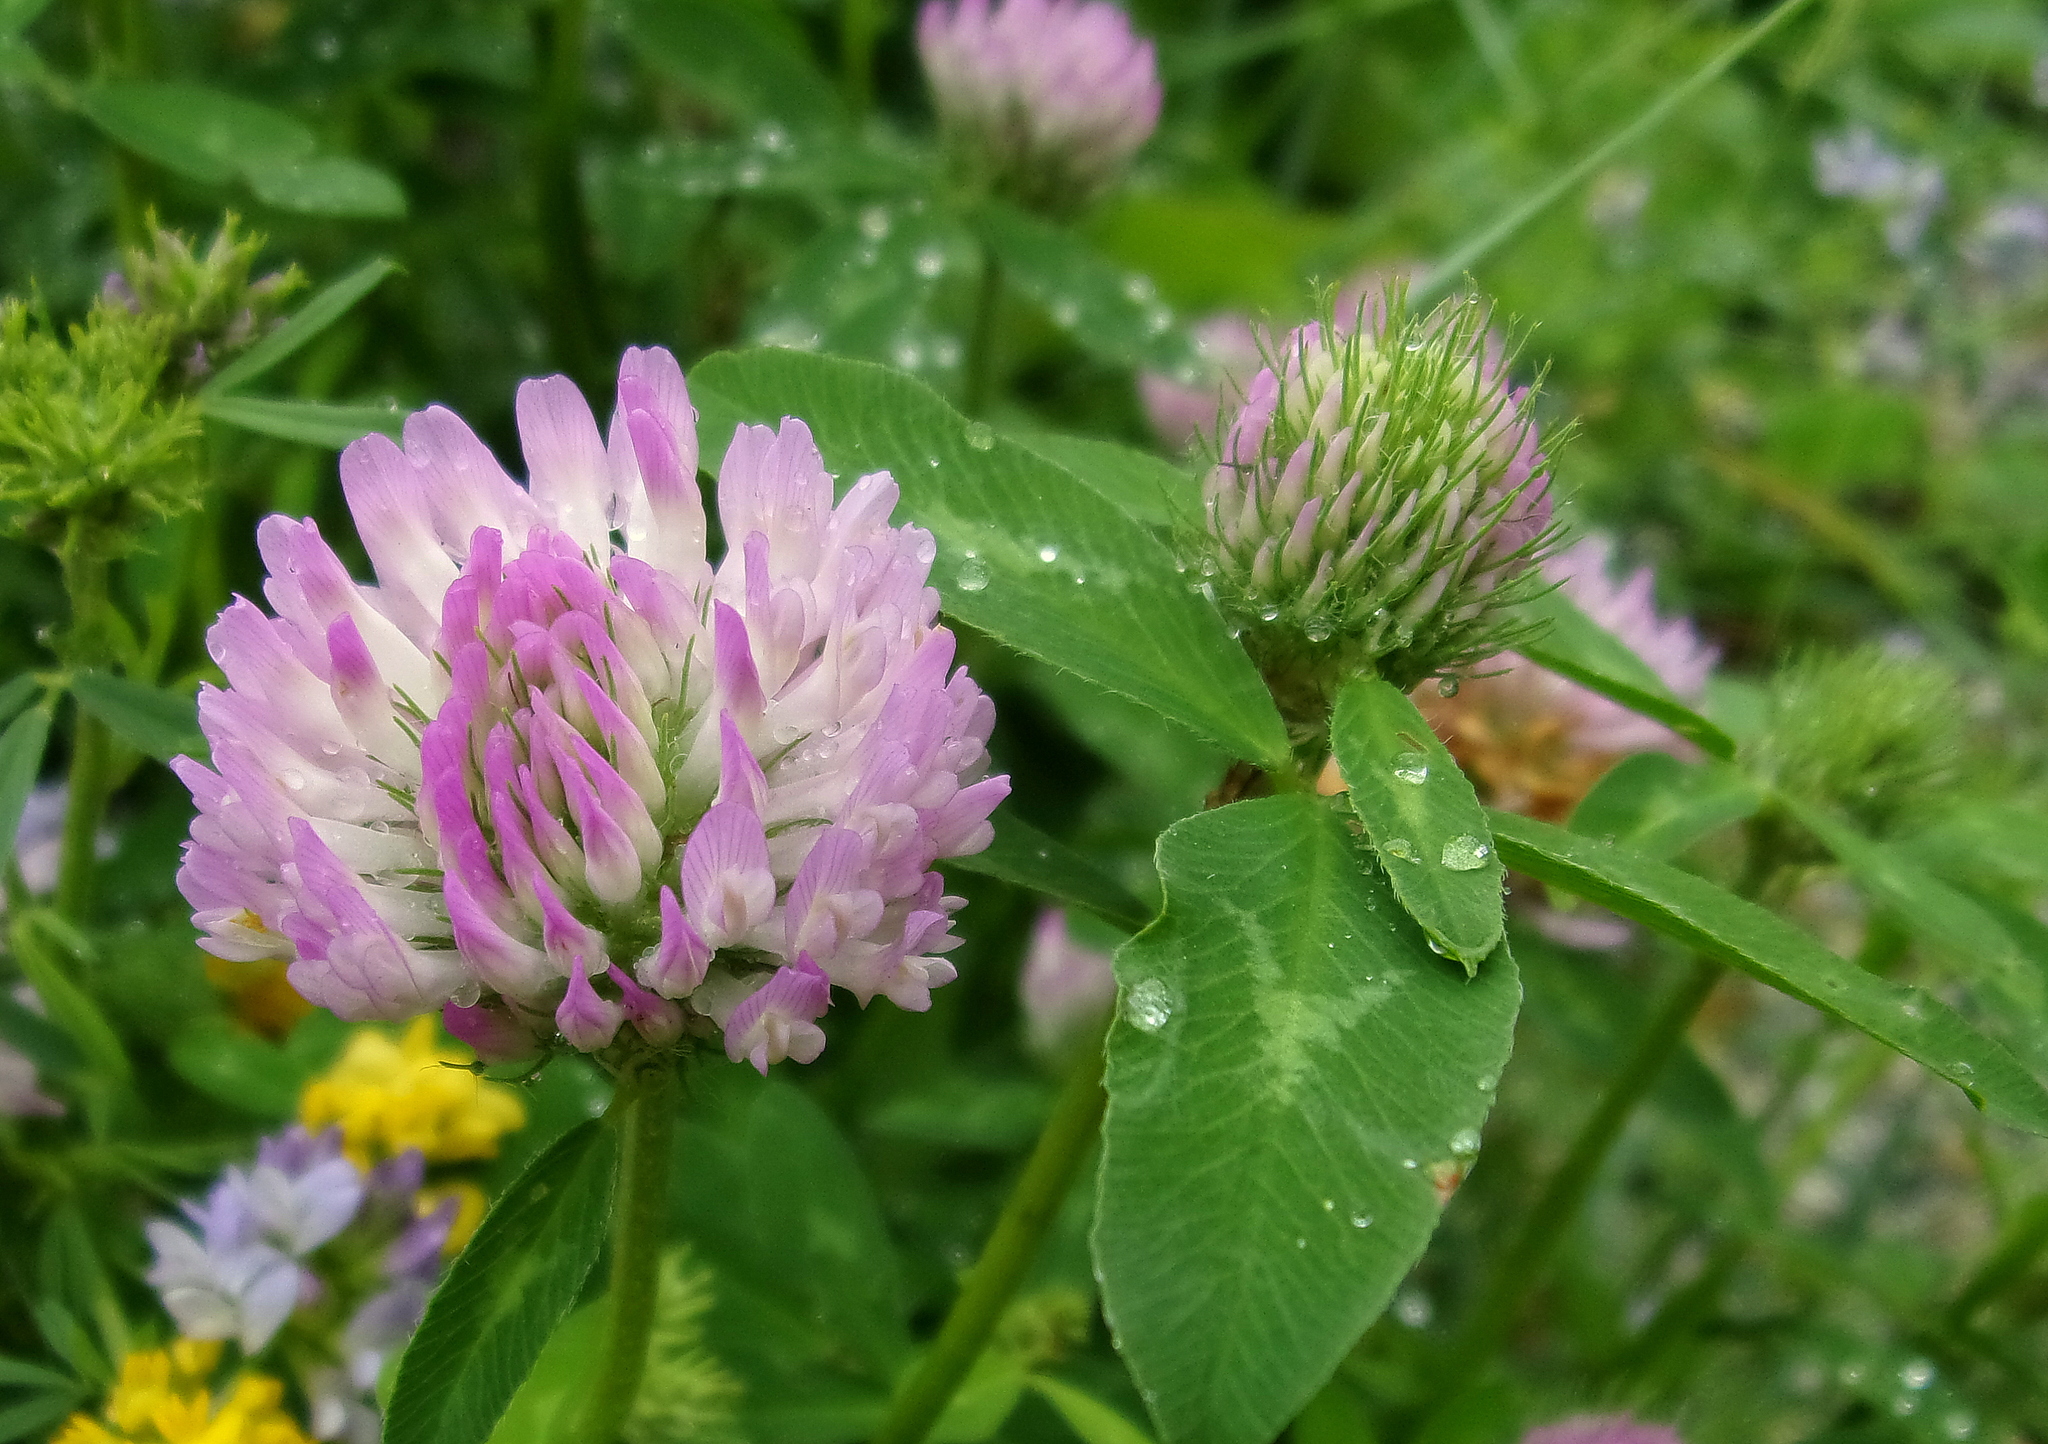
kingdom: Plantae
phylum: Tracheophyta
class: Magnoliopsida
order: Fabales
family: Fabaceae
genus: Trifolium
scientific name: Trifolium pratense
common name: Red clover
